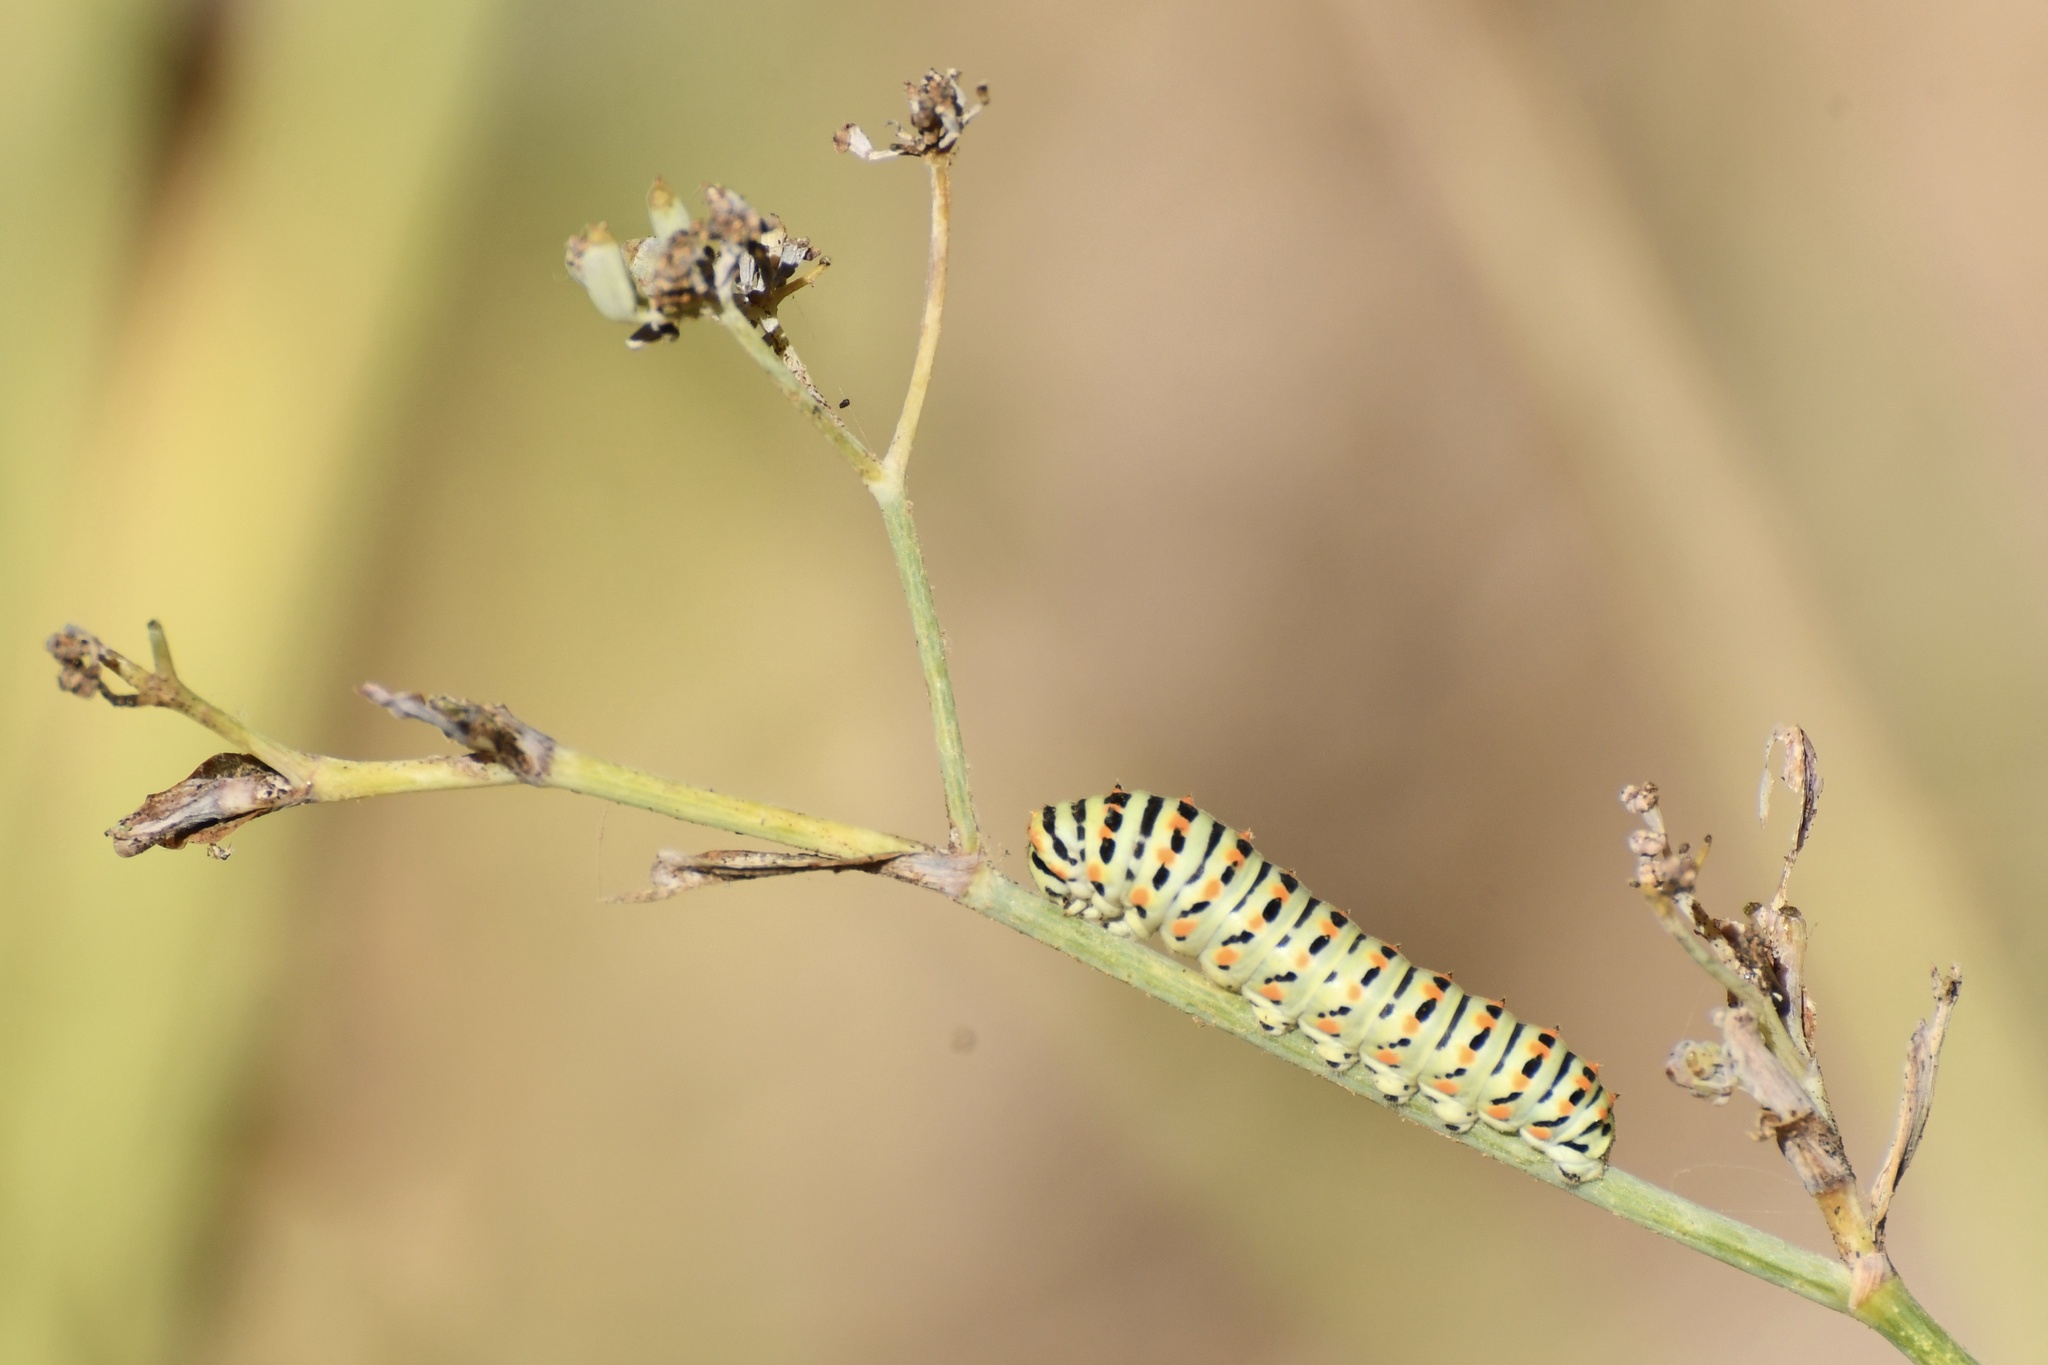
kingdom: Animalia
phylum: Arthropoda
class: Insecta
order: Lepidoptera
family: Papilionidae
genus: Papilio
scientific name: Papilio machaon
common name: Swallowtail
